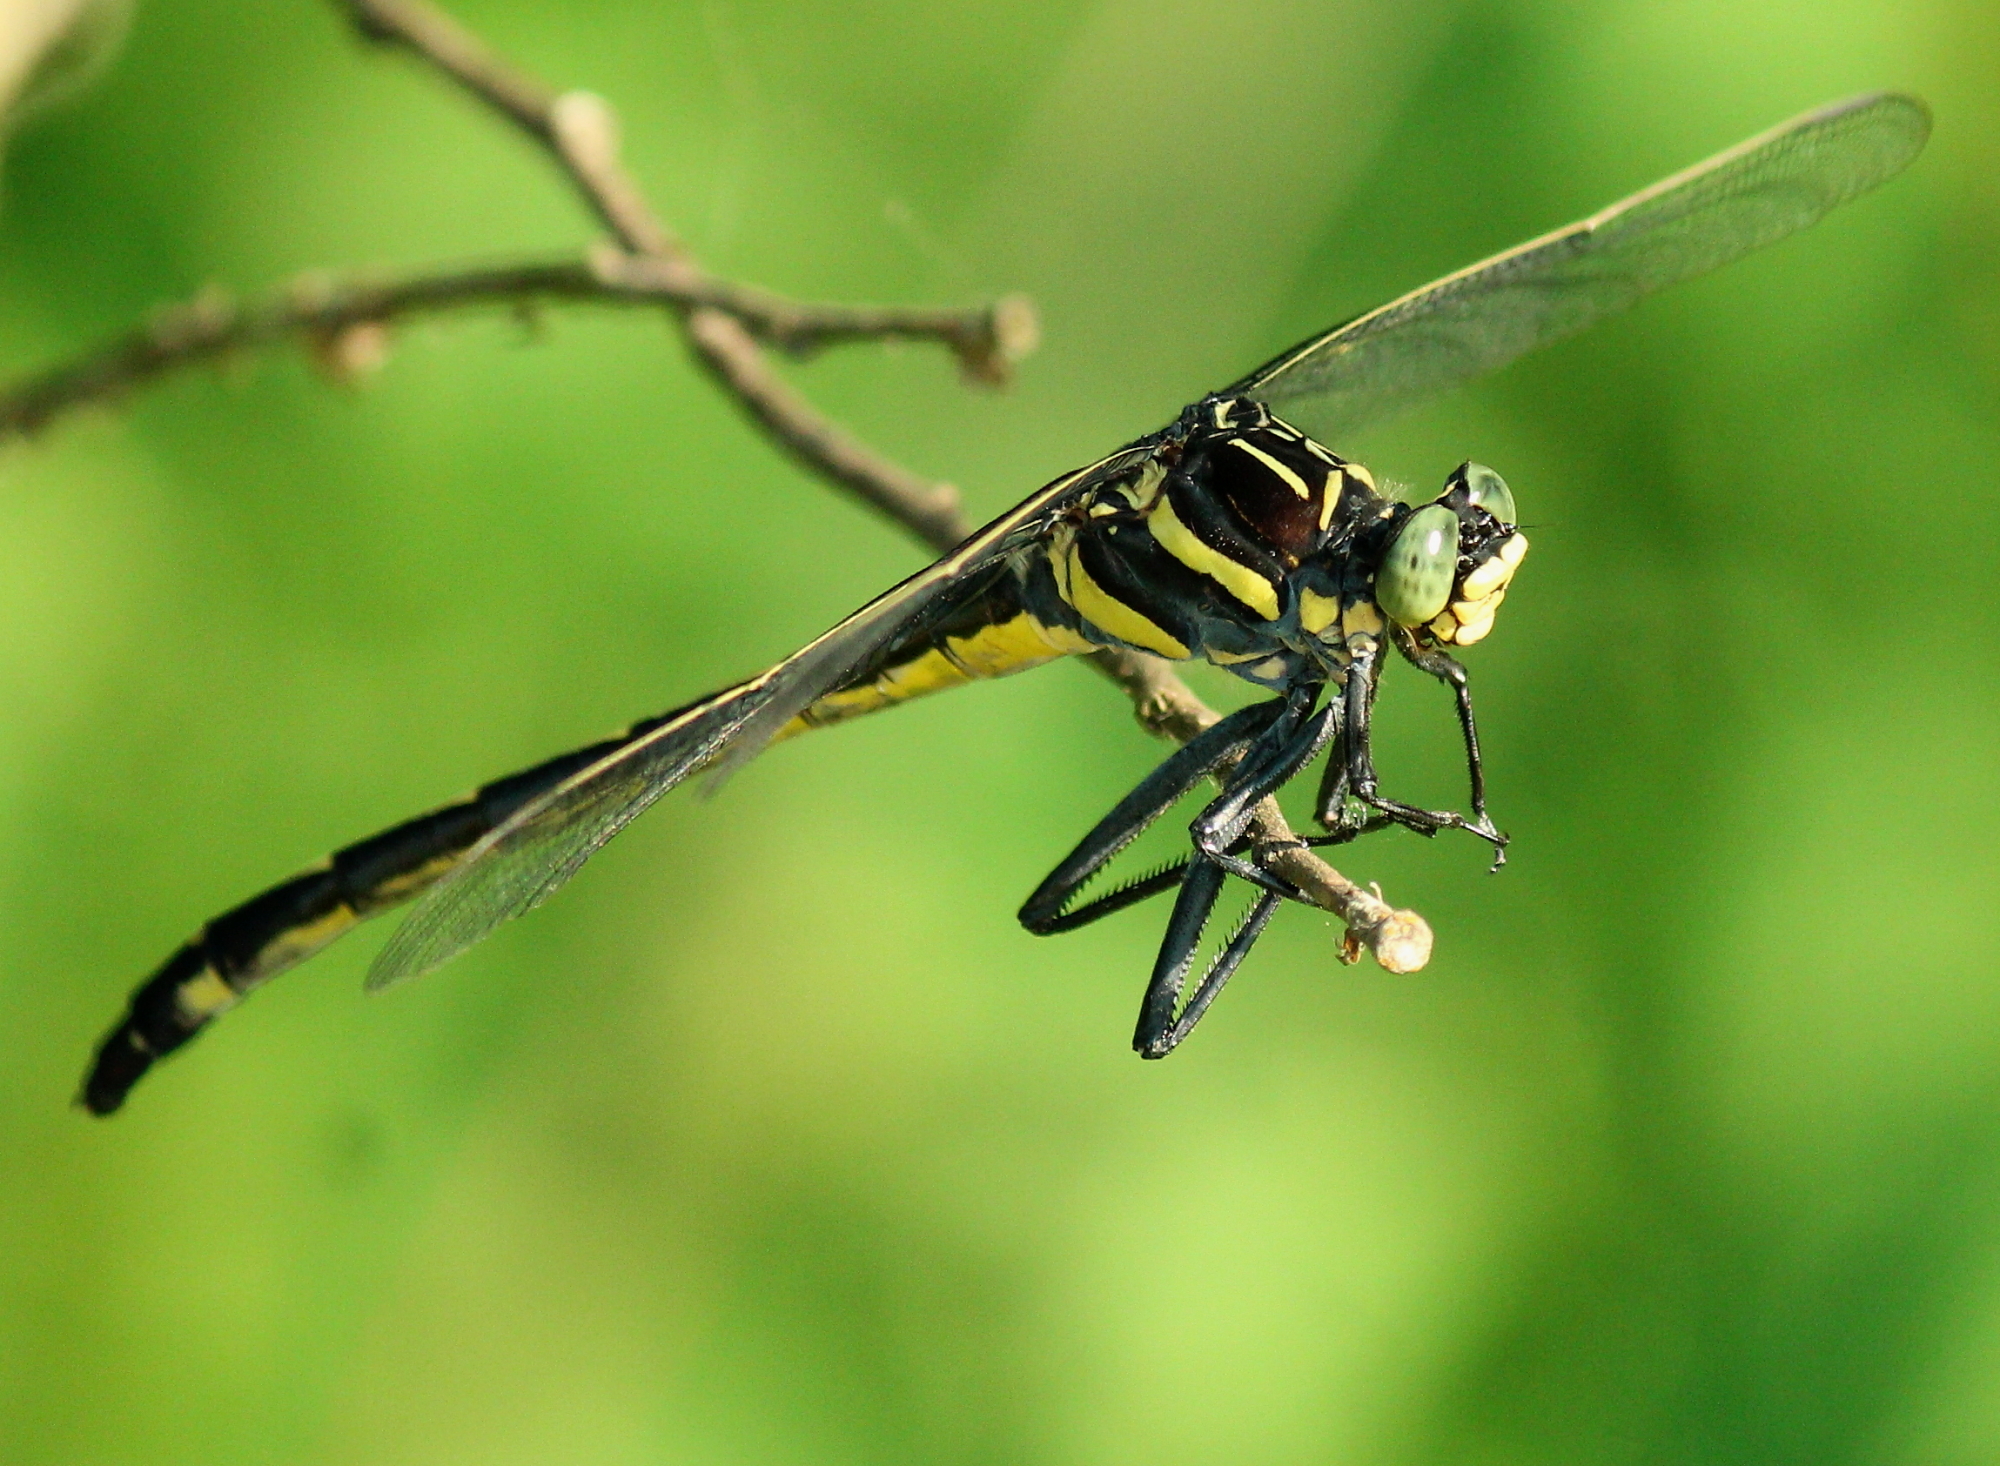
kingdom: Animalia
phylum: Arthropoda
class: Insecta
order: Odonata
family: Gomphidae
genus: Hagenius
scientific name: Hagenius brevistylus
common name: Dragonhunter
